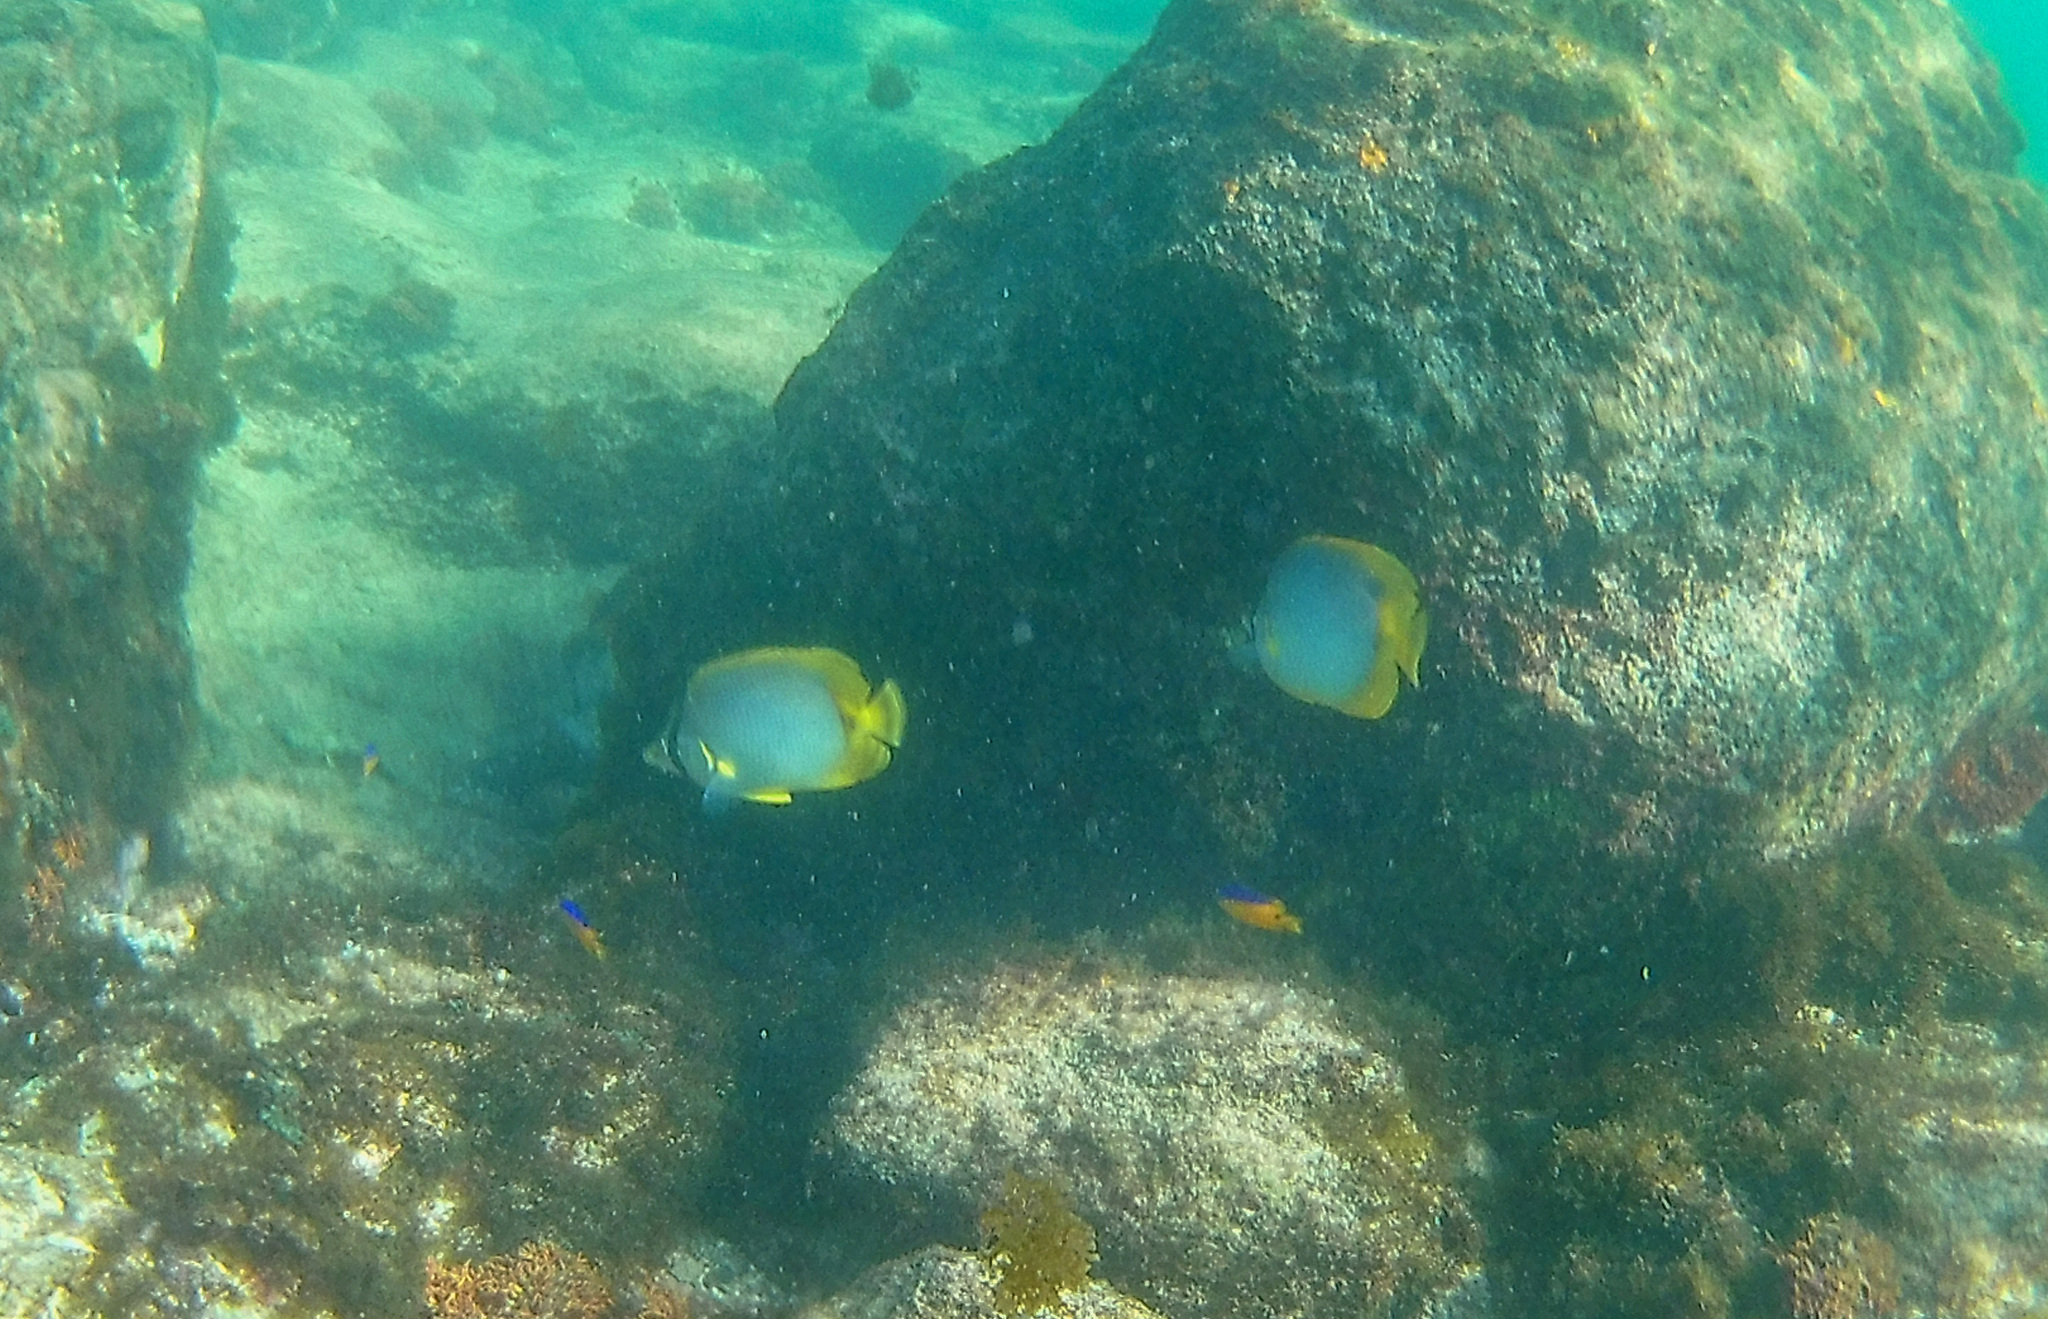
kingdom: Animalia
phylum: Chordata
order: Perciformes
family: Chaetodontidae
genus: Chaetodon
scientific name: Chaetodon ocellatus
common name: Spotfin butterflyfish
